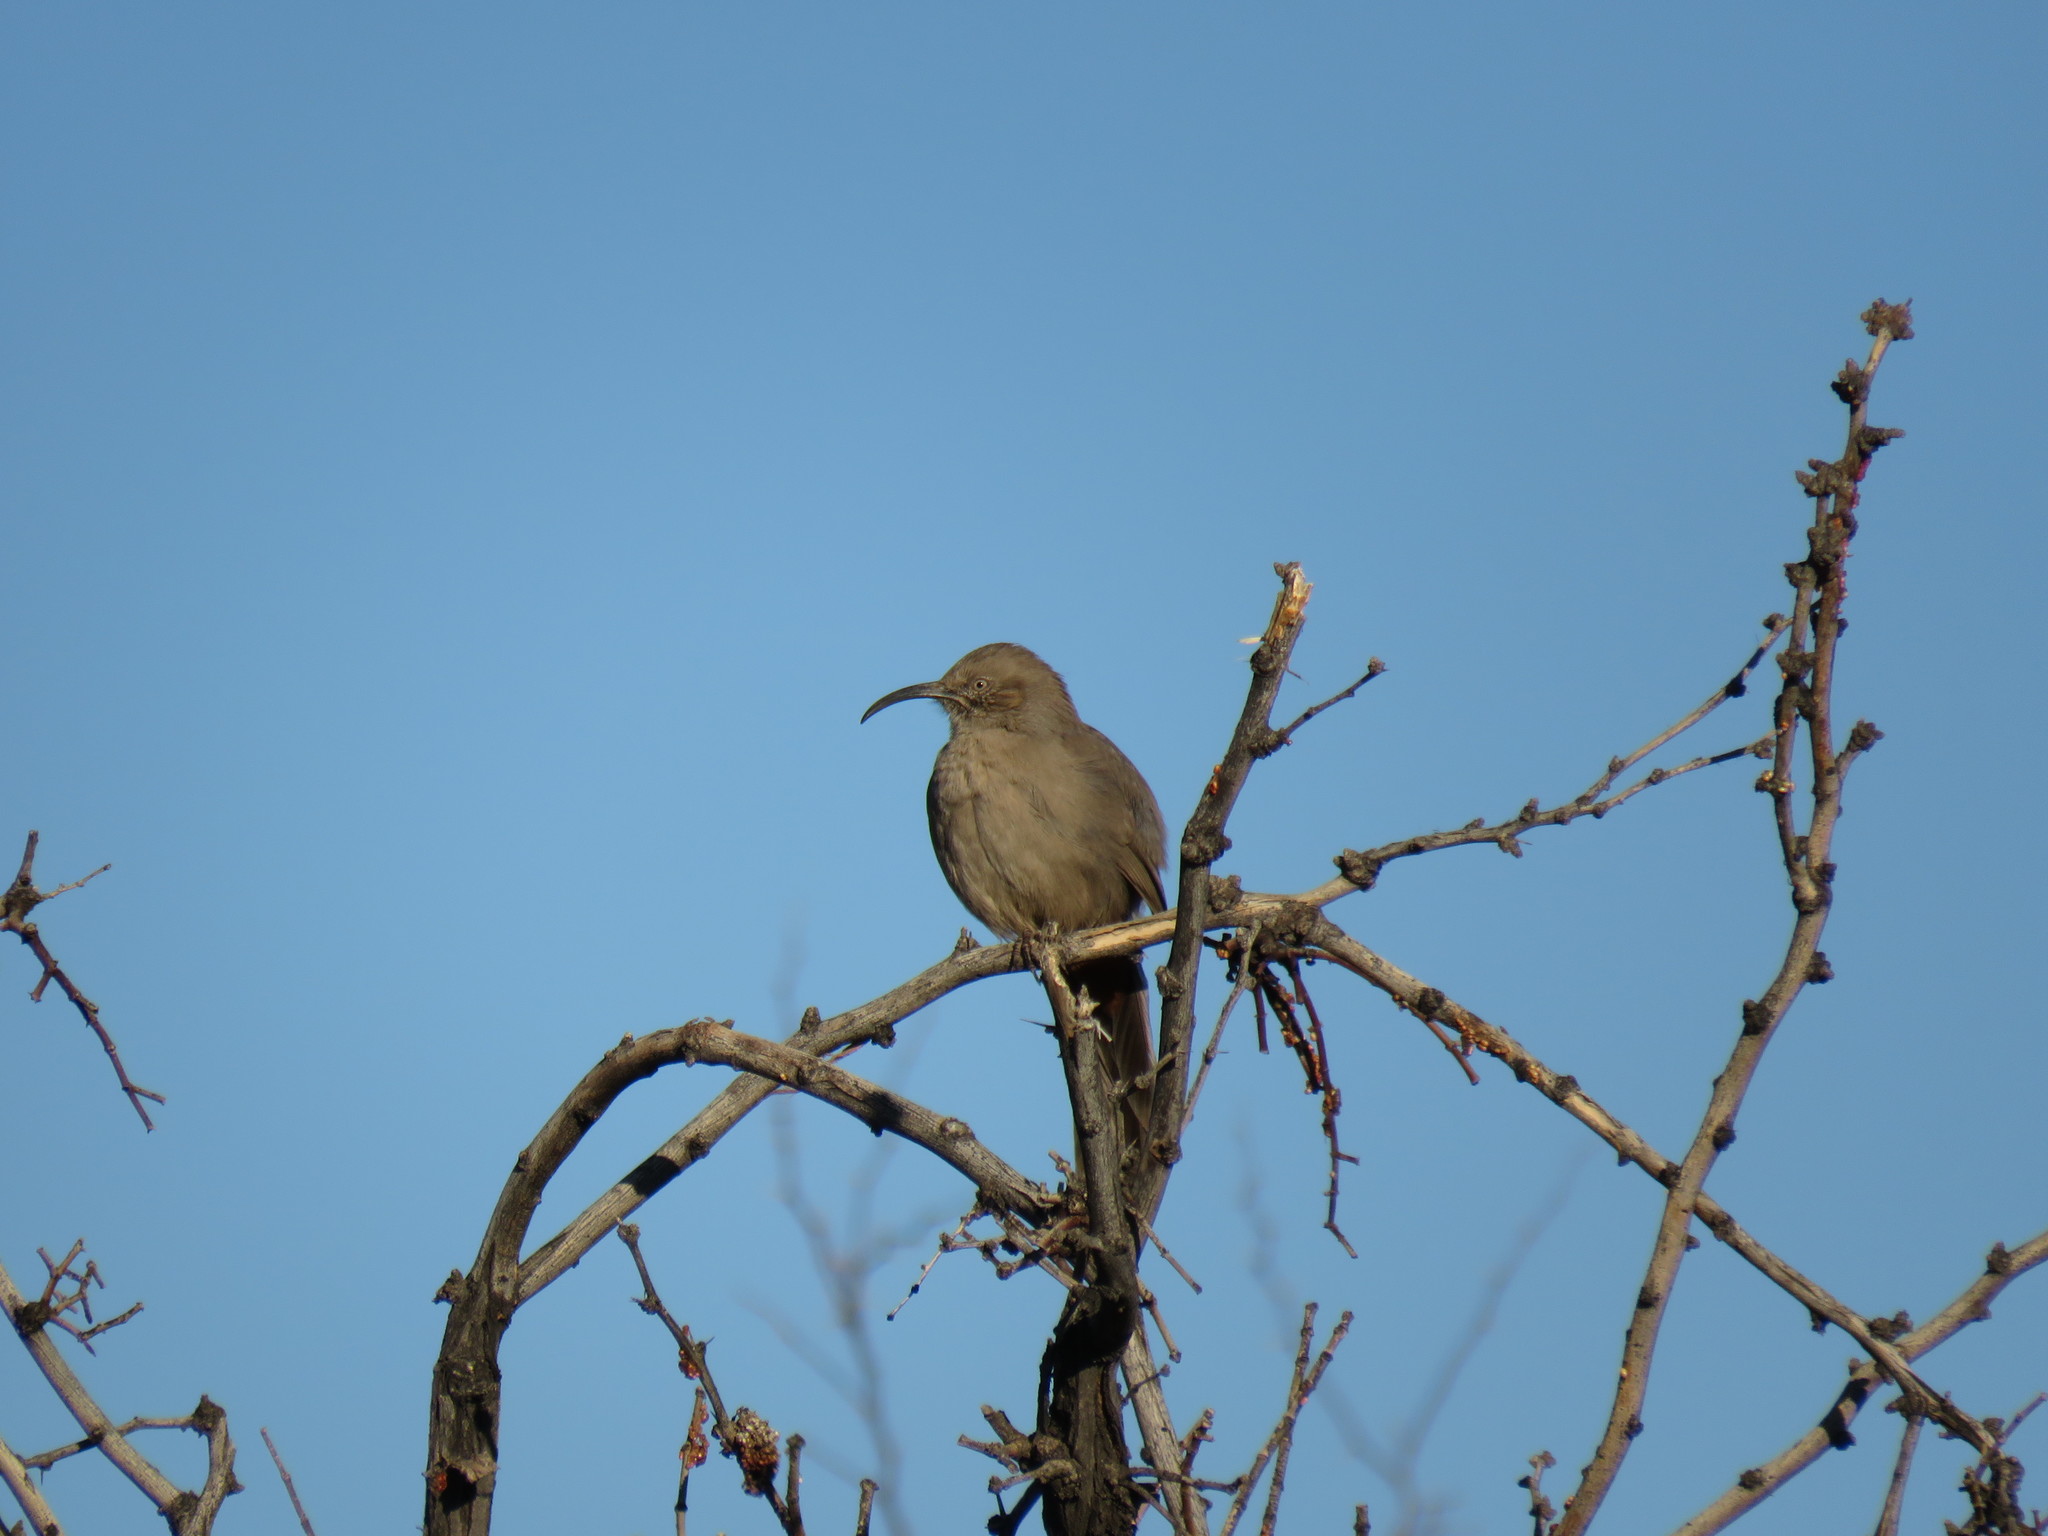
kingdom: Animalia
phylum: Chordata
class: Aves
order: Passeriformes
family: Mimidae
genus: Toxostoma
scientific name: Toxostoma crissale
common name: Crissal thrasher
